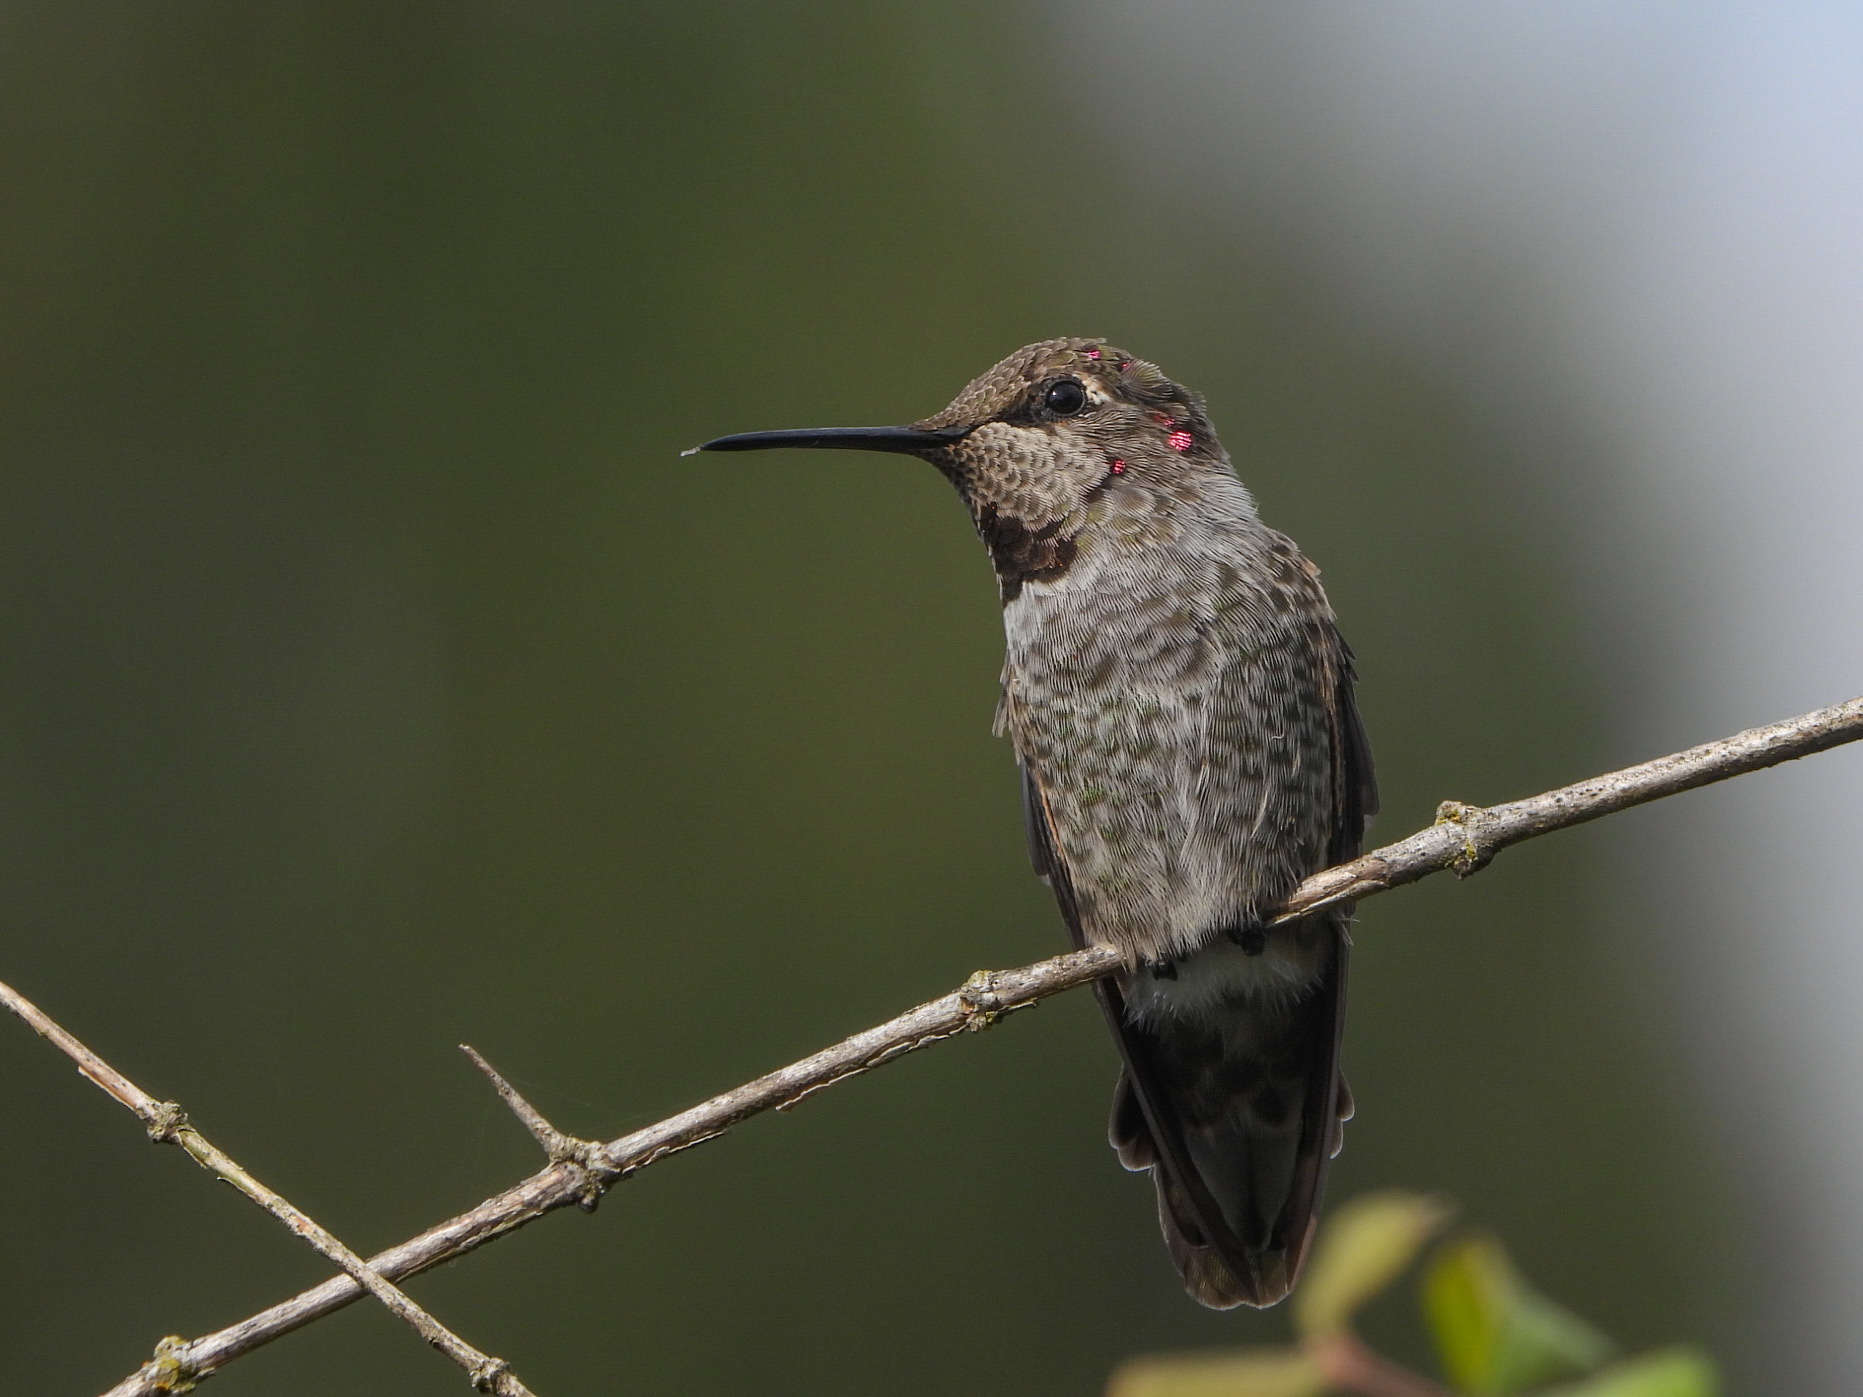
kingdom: Animalia
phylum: Chordata
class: Aves
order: Apodiformes
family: Trochilidae
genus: Calypte
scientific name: Calypte anna
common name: Anna's hummingbird
